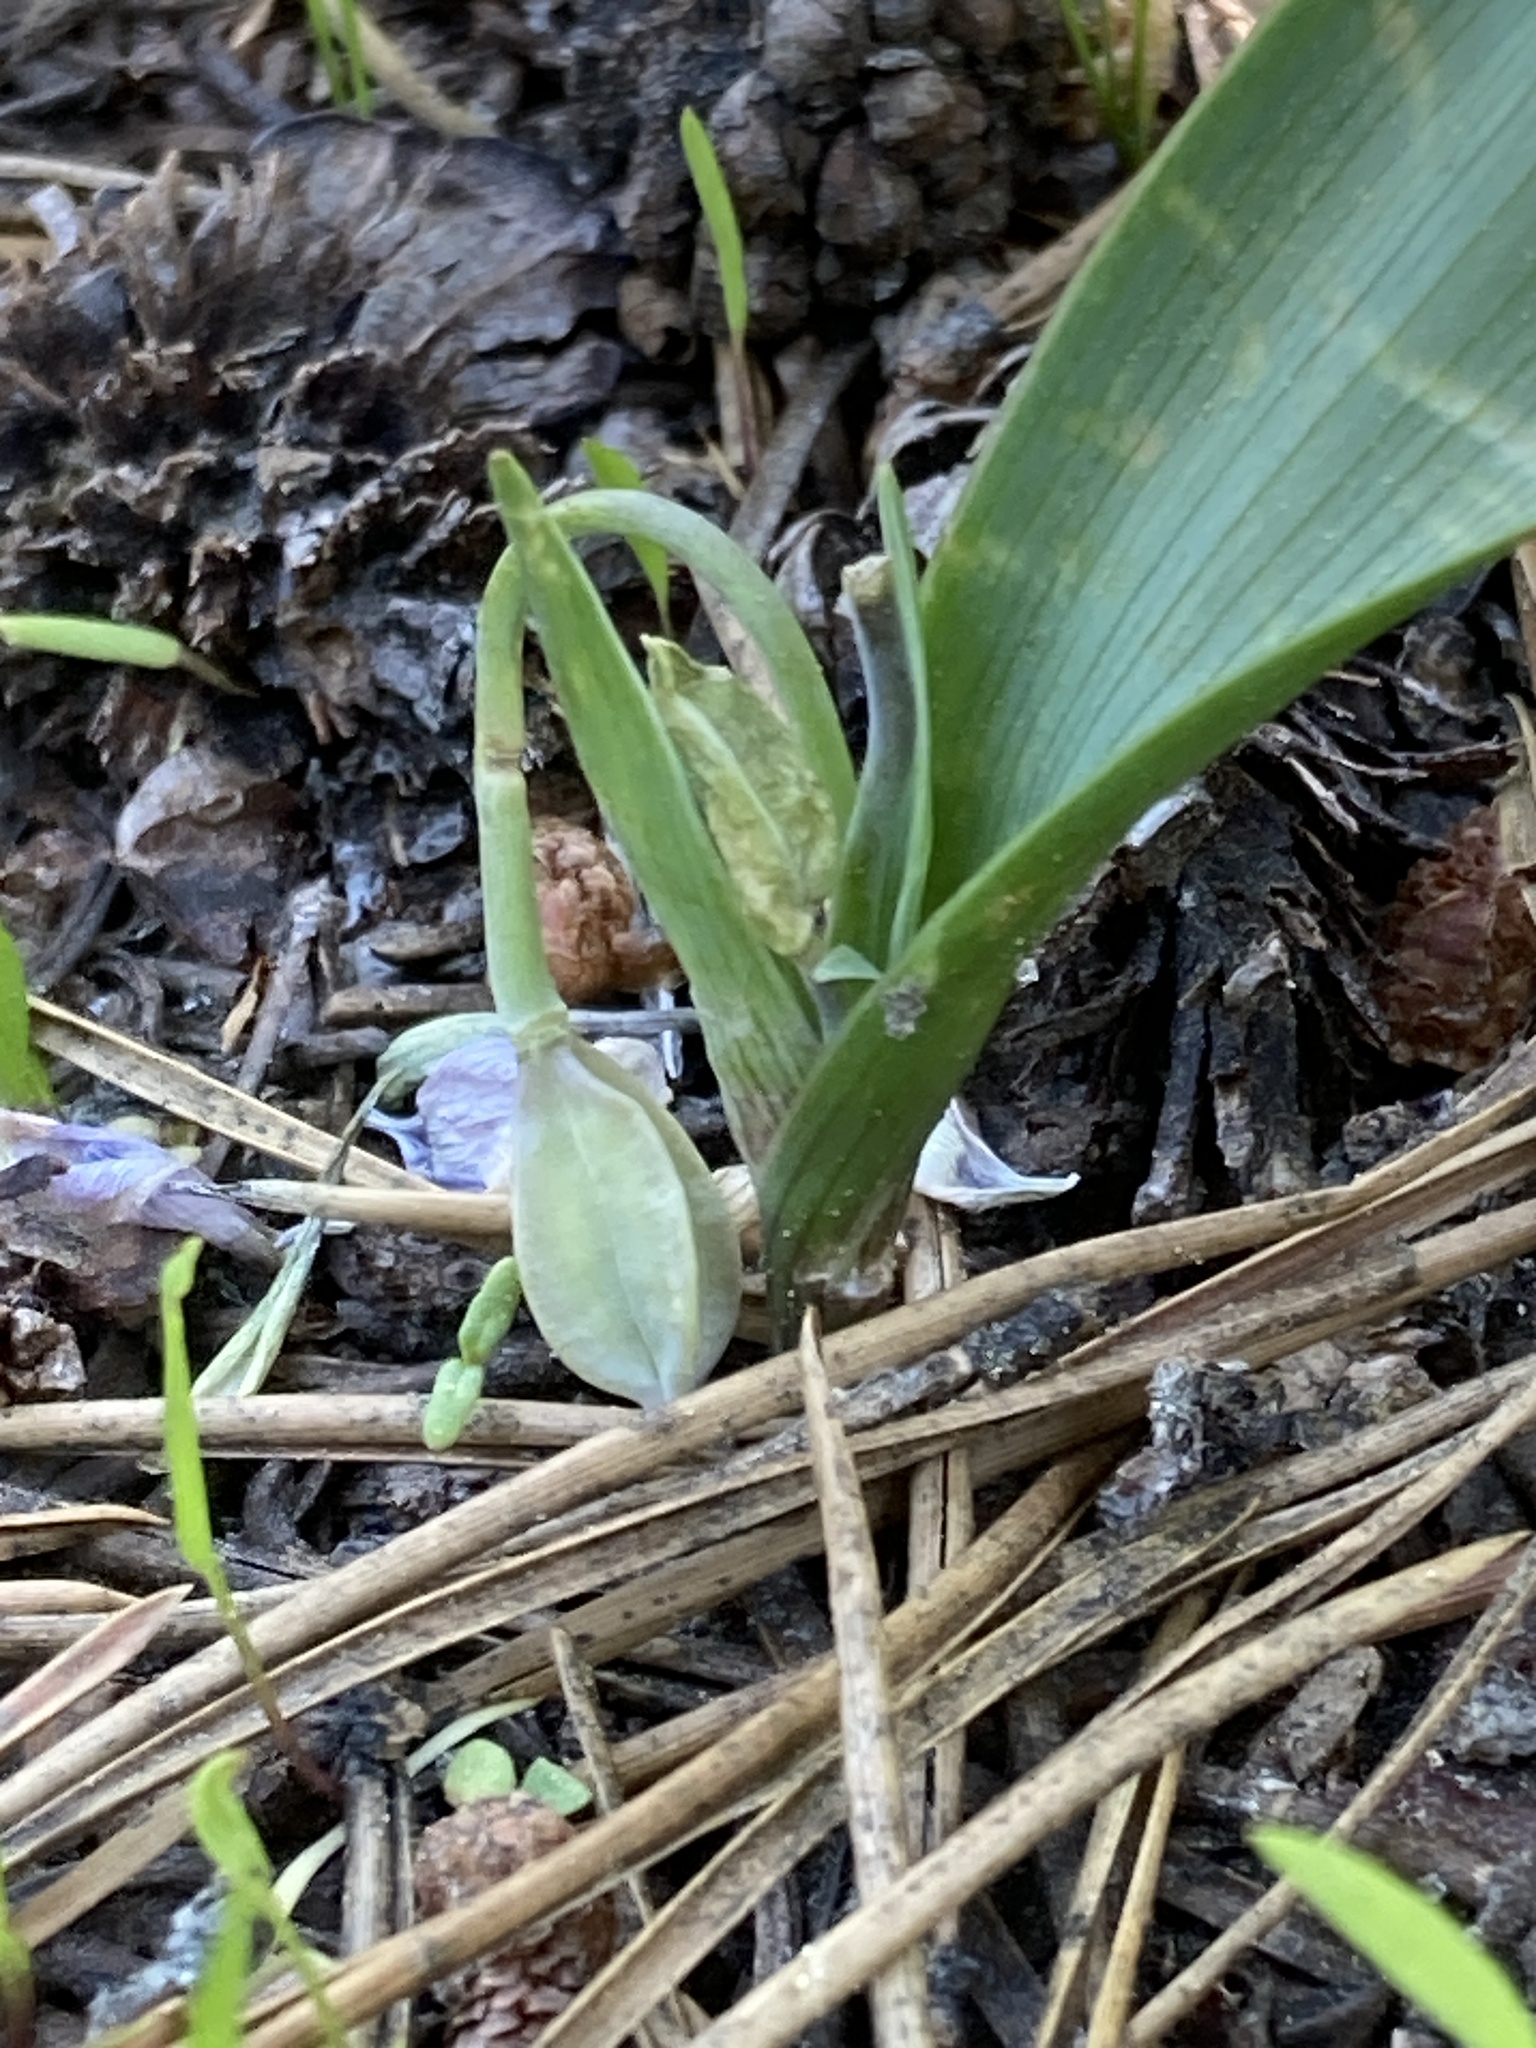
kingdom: Plantae
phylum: Tracheophyta
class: Liliopsida
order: Liliales
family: Liliaceae
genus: Calochortus
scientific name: Calochortus minimus
